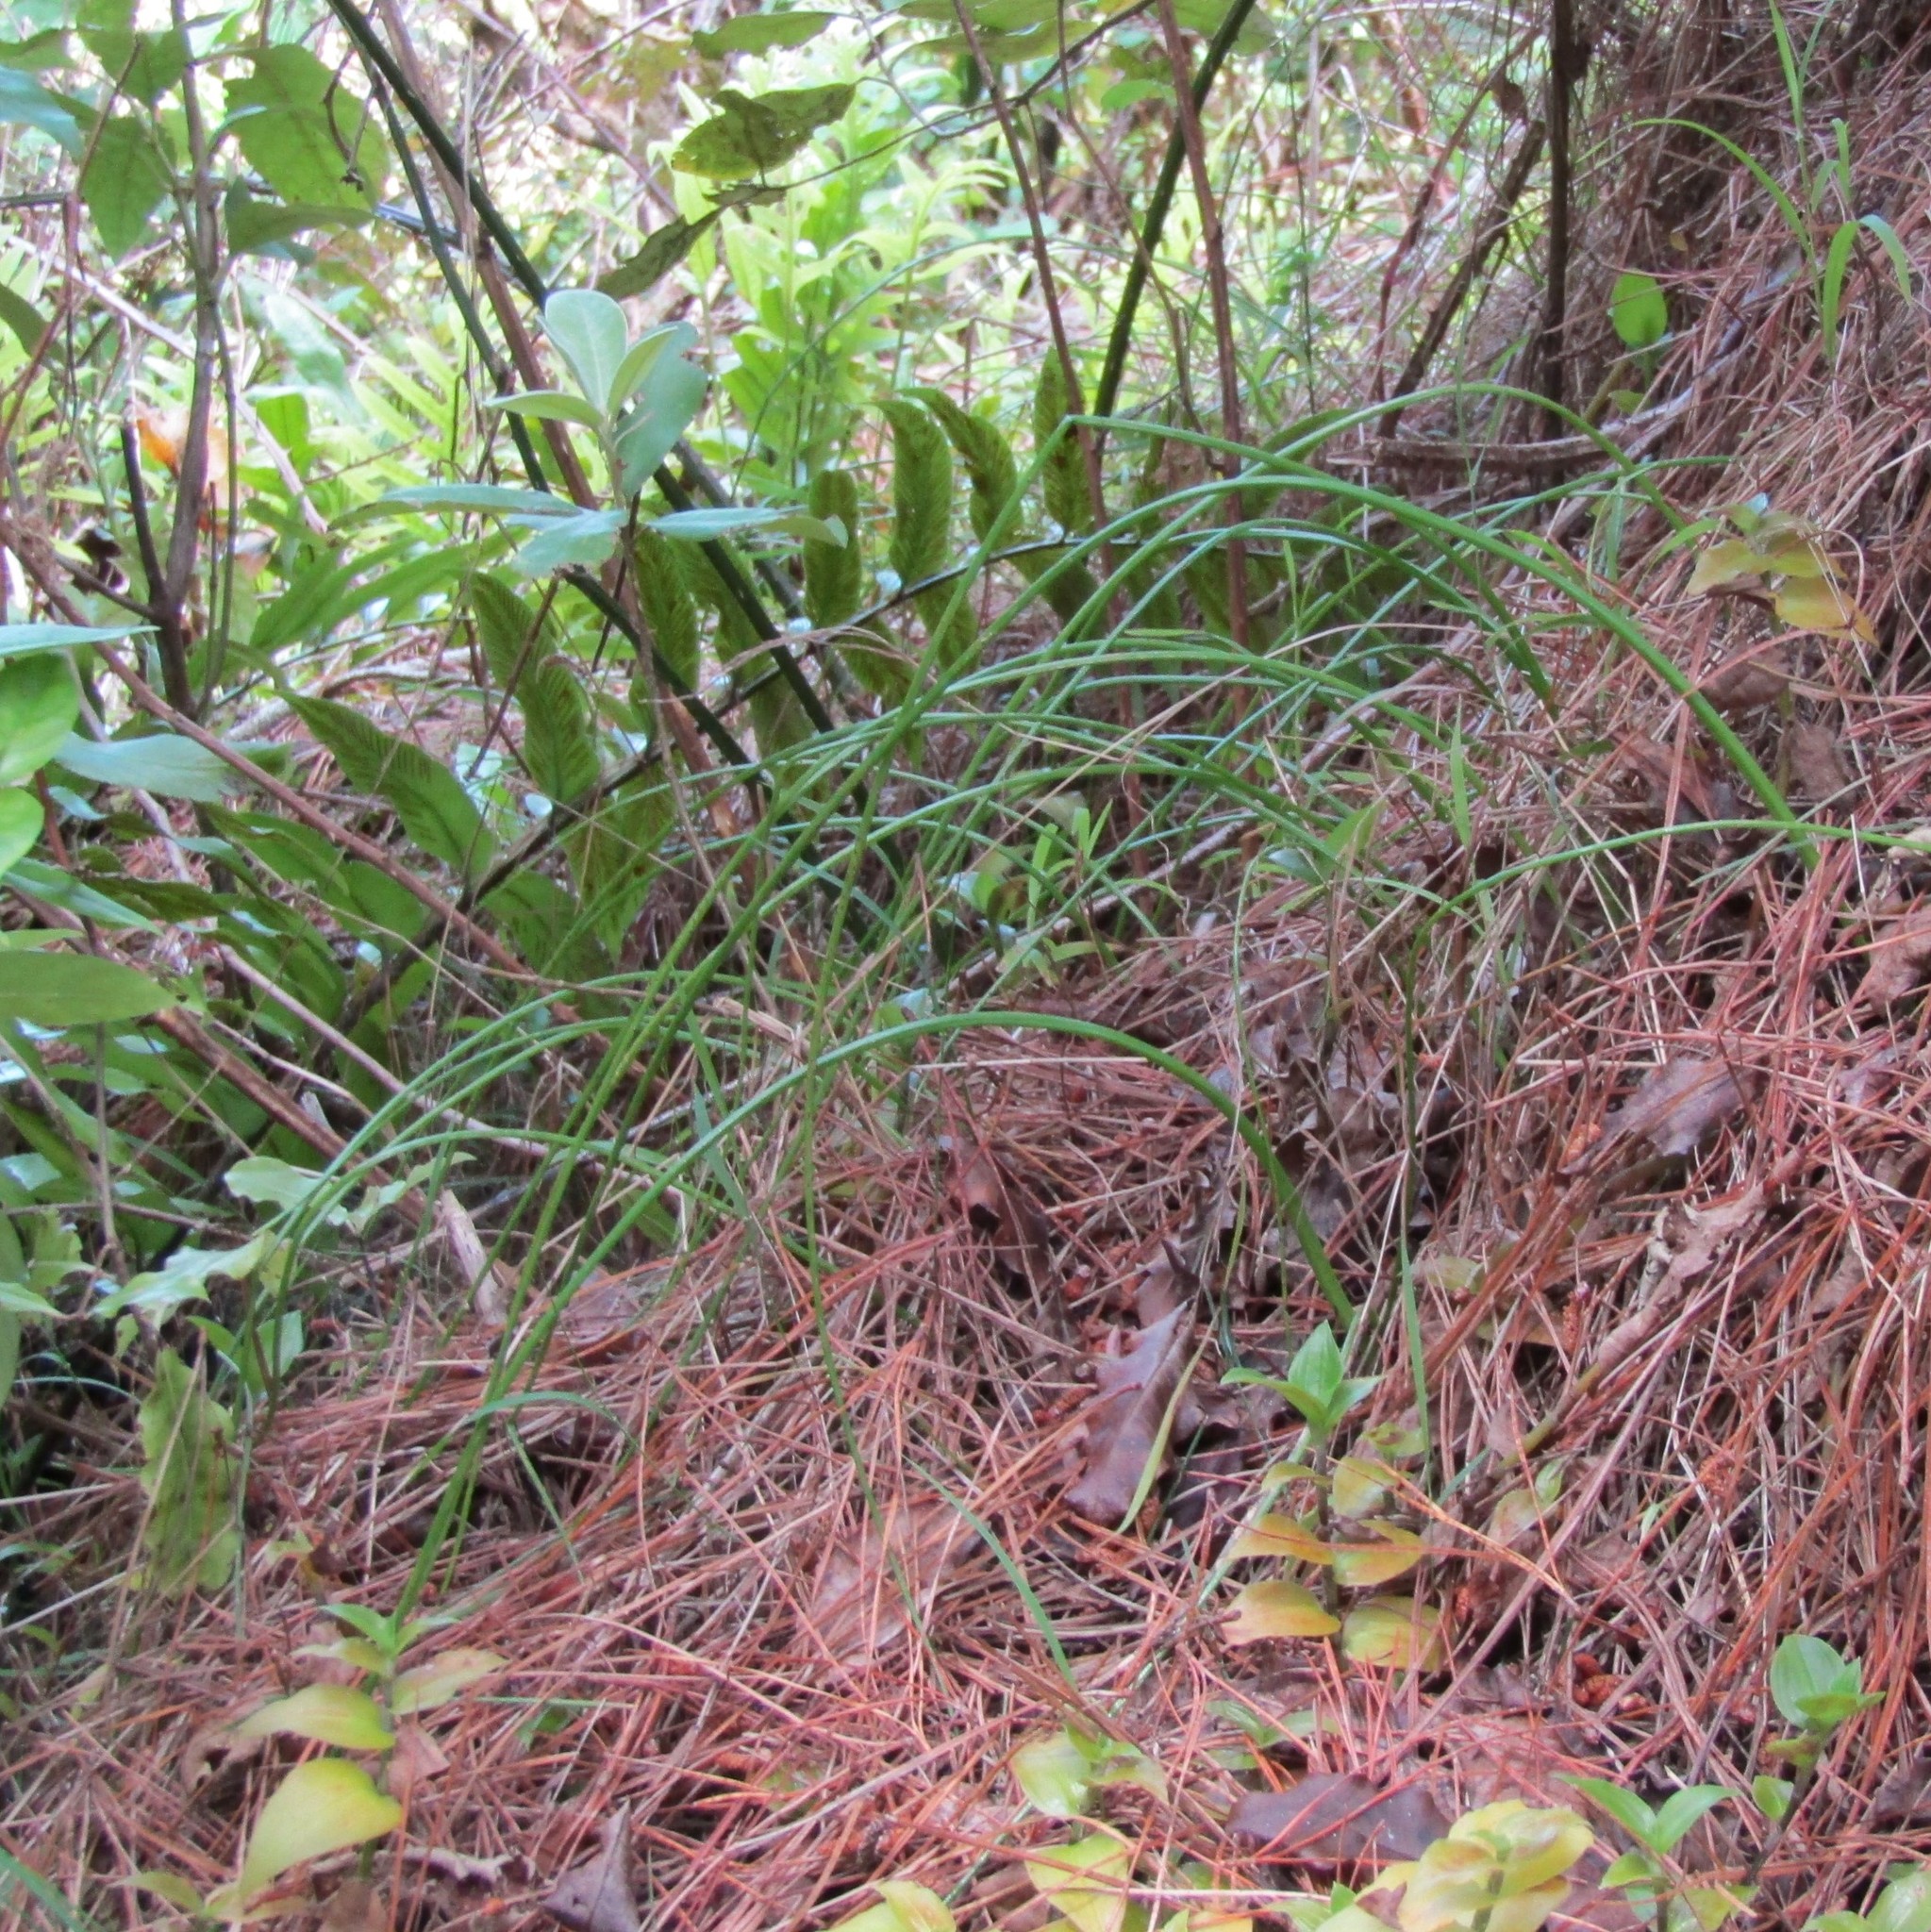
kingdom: Plantae
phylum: Tracheophyta
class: Liliopsida
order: Asparagales
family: Orchidaceae
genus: Microtis
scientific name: Microtis unifolia
